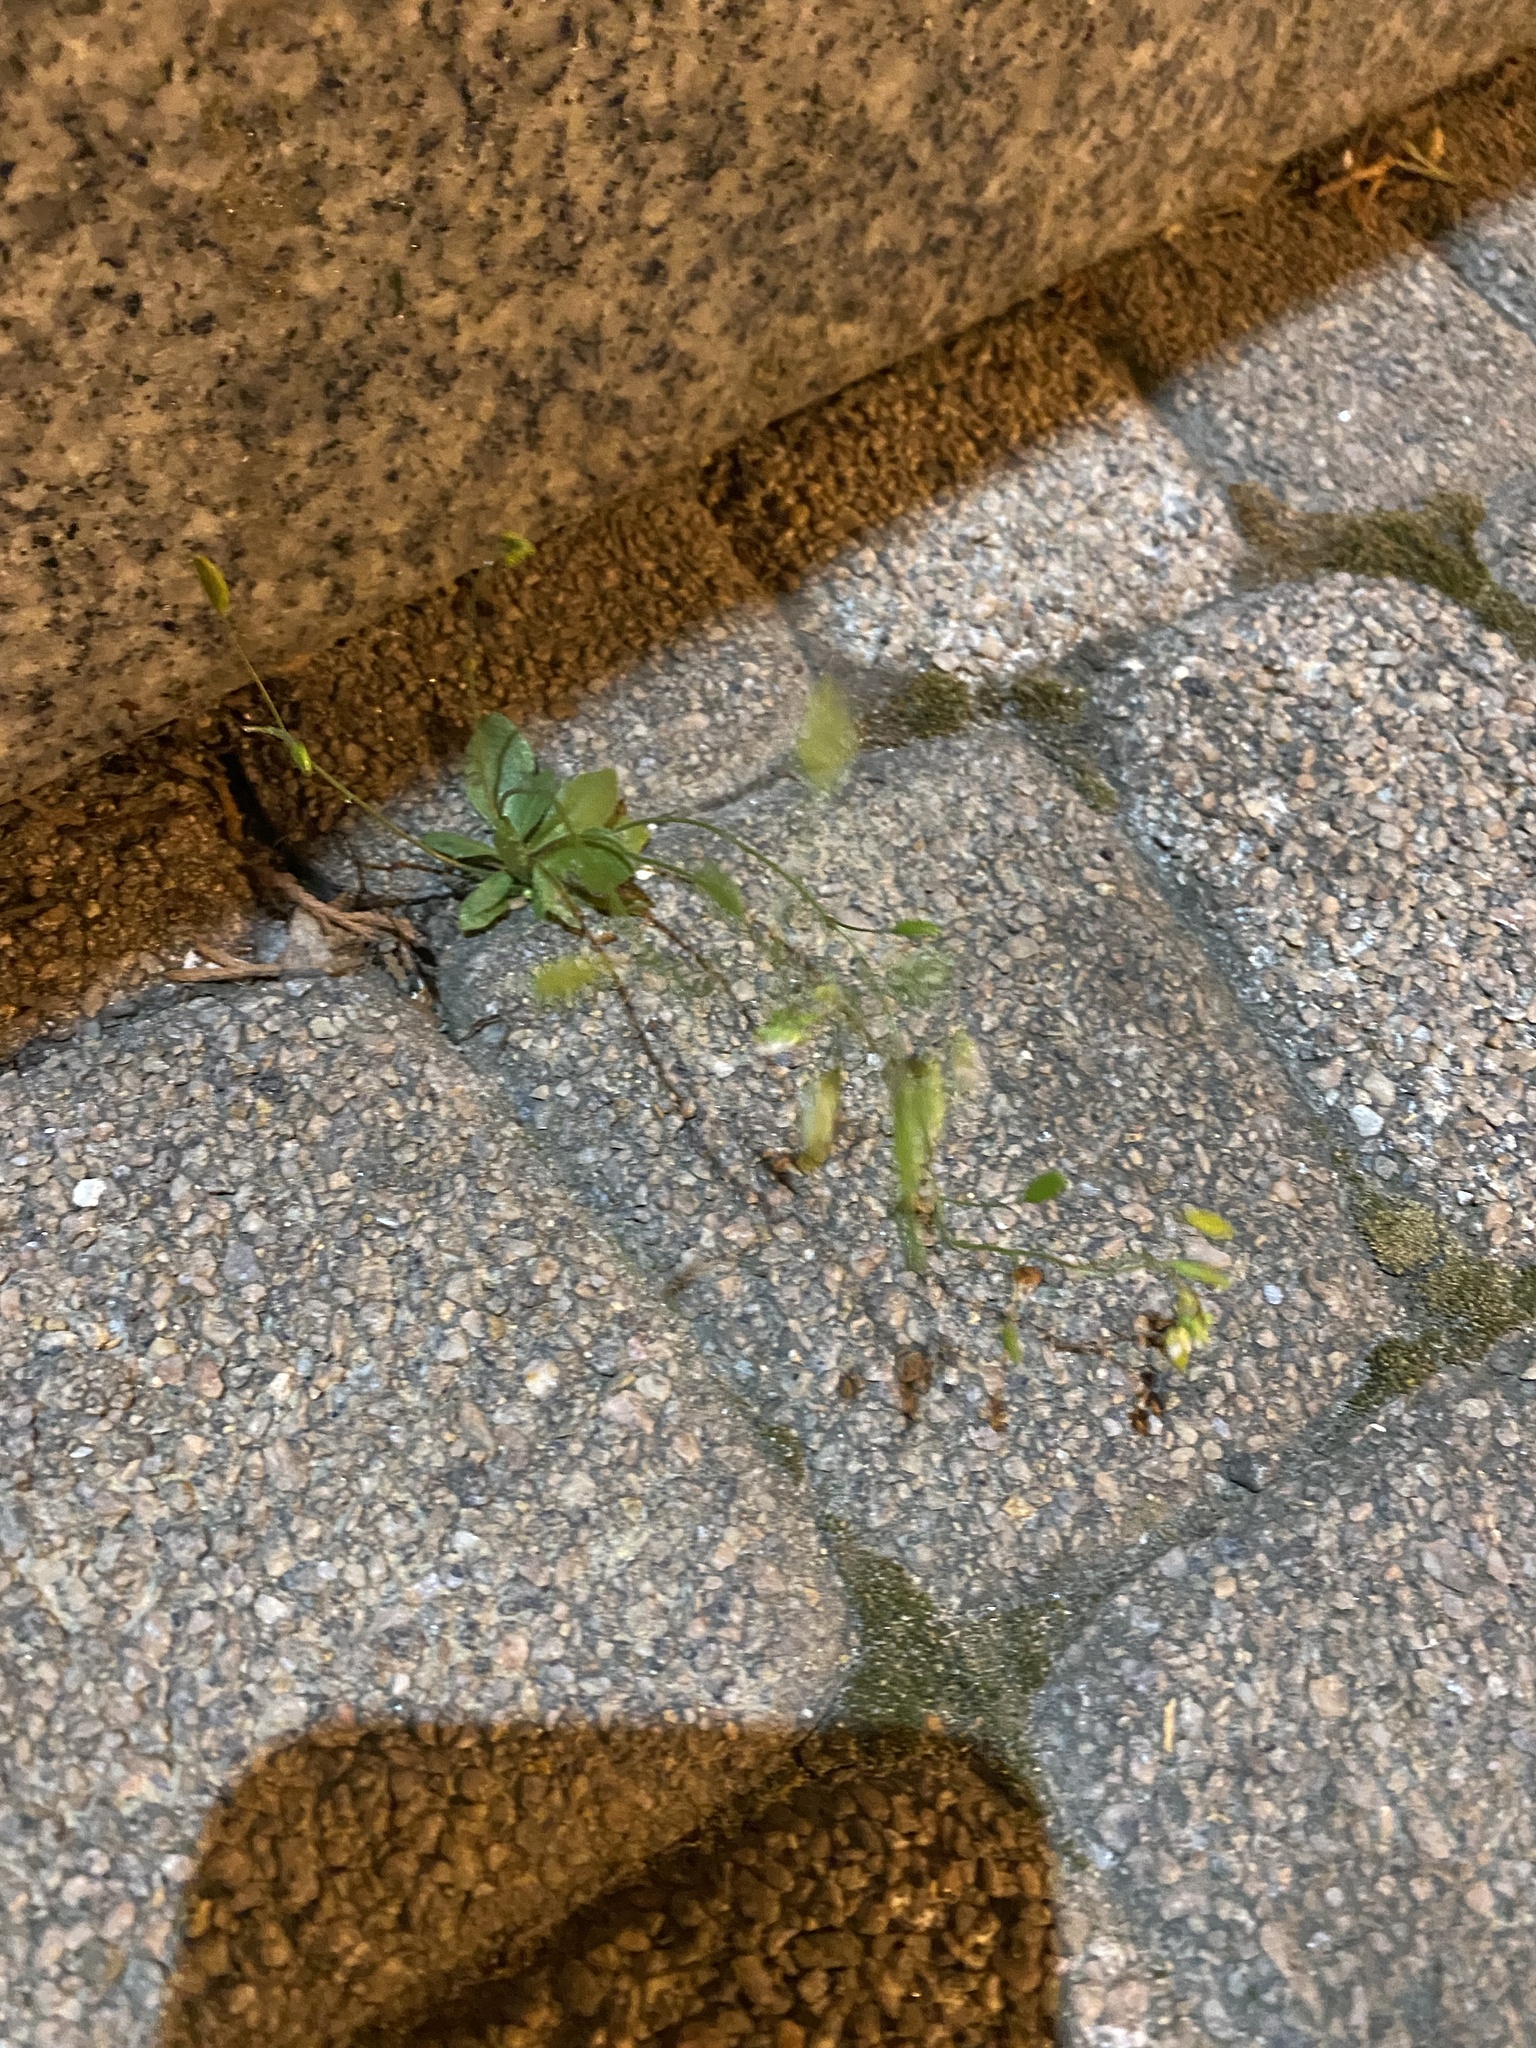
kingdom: Plantae
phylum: Tracheophyta
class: Magnoliopsida
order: Brassicales
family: Brassicaceae
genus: Draba
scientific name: Draba verna
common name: Spring draba
